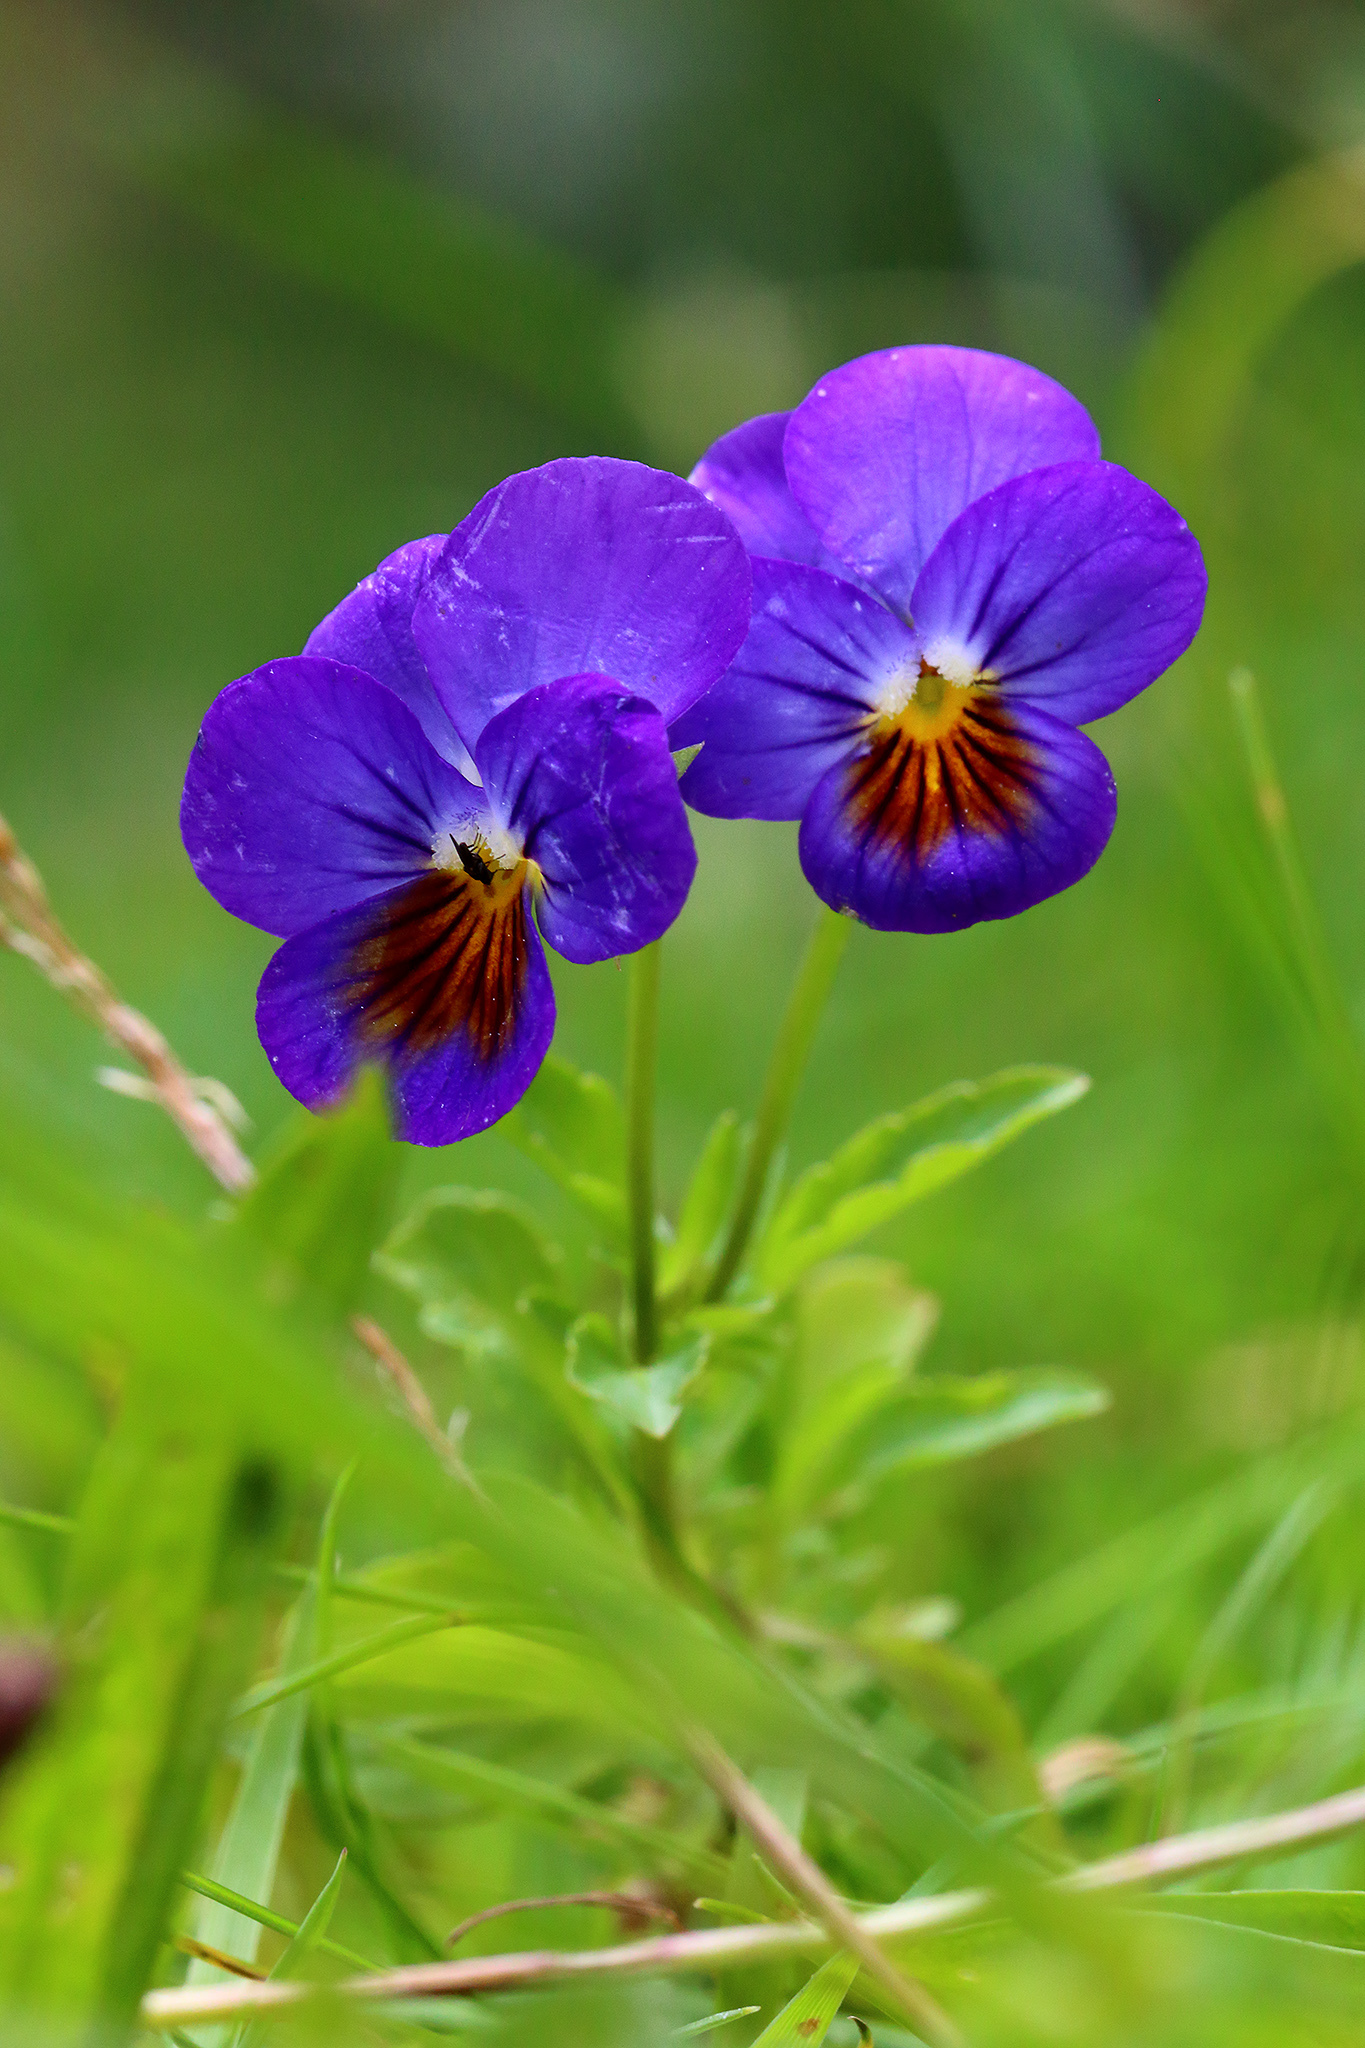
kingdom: Plantae
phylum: Tracheophyta
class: Magnoliopsida
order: Malpighiales
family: Violaceae
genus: Viola
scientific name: Viola wittrockiana
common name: Garden pansy
